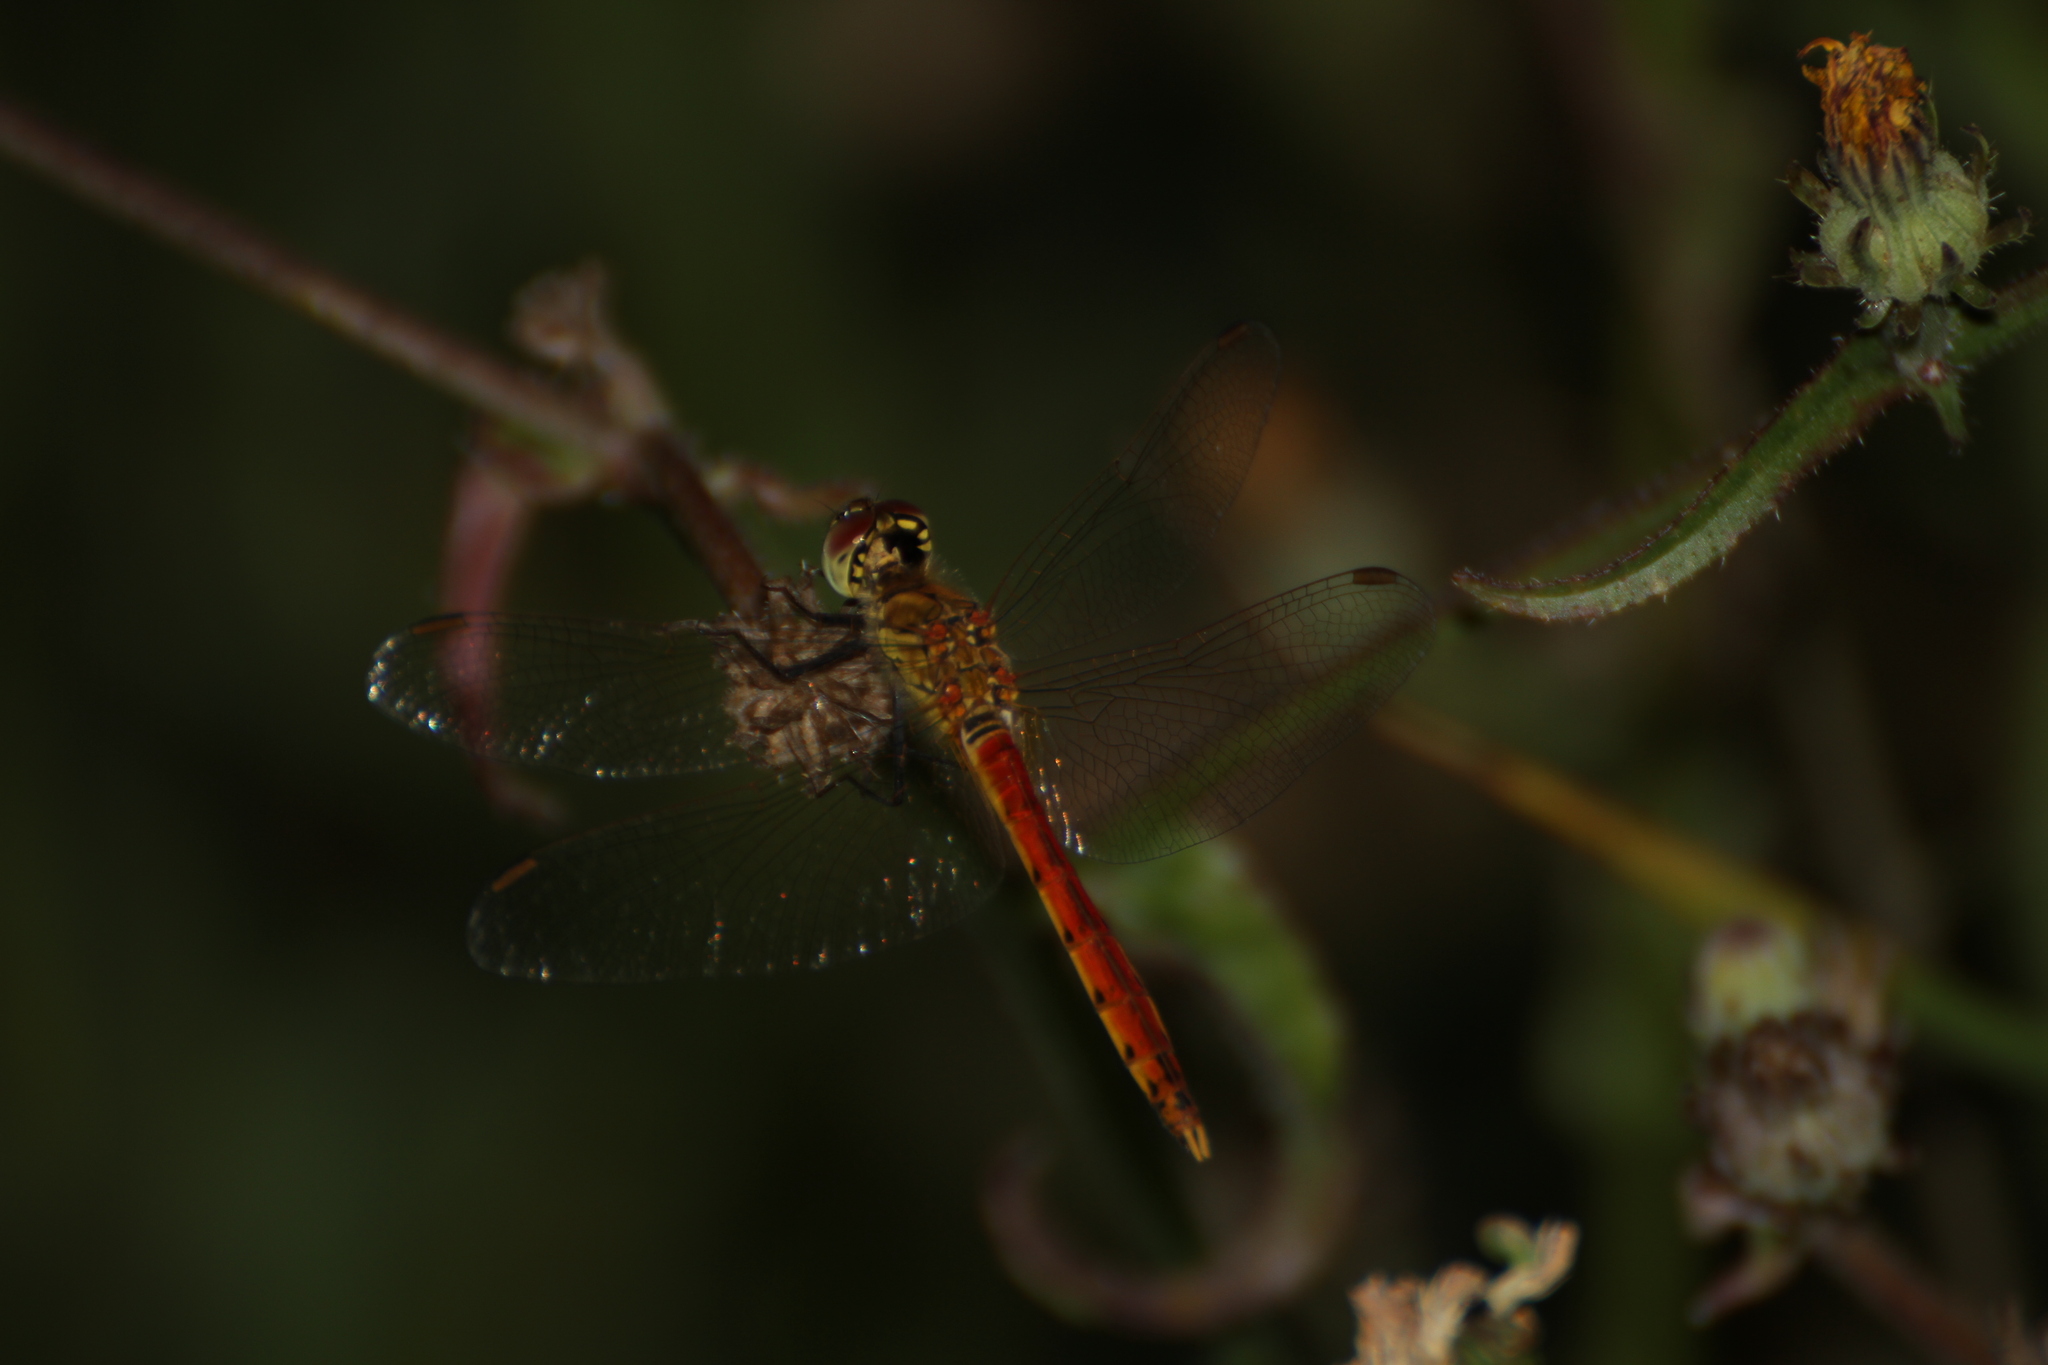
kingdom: Animalia
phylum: Arthropoda
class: Insecta
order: Odonata
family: Libellulidae
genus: Sympetrum
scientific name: Sympetrum depressiusculum
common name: Spotted darter
